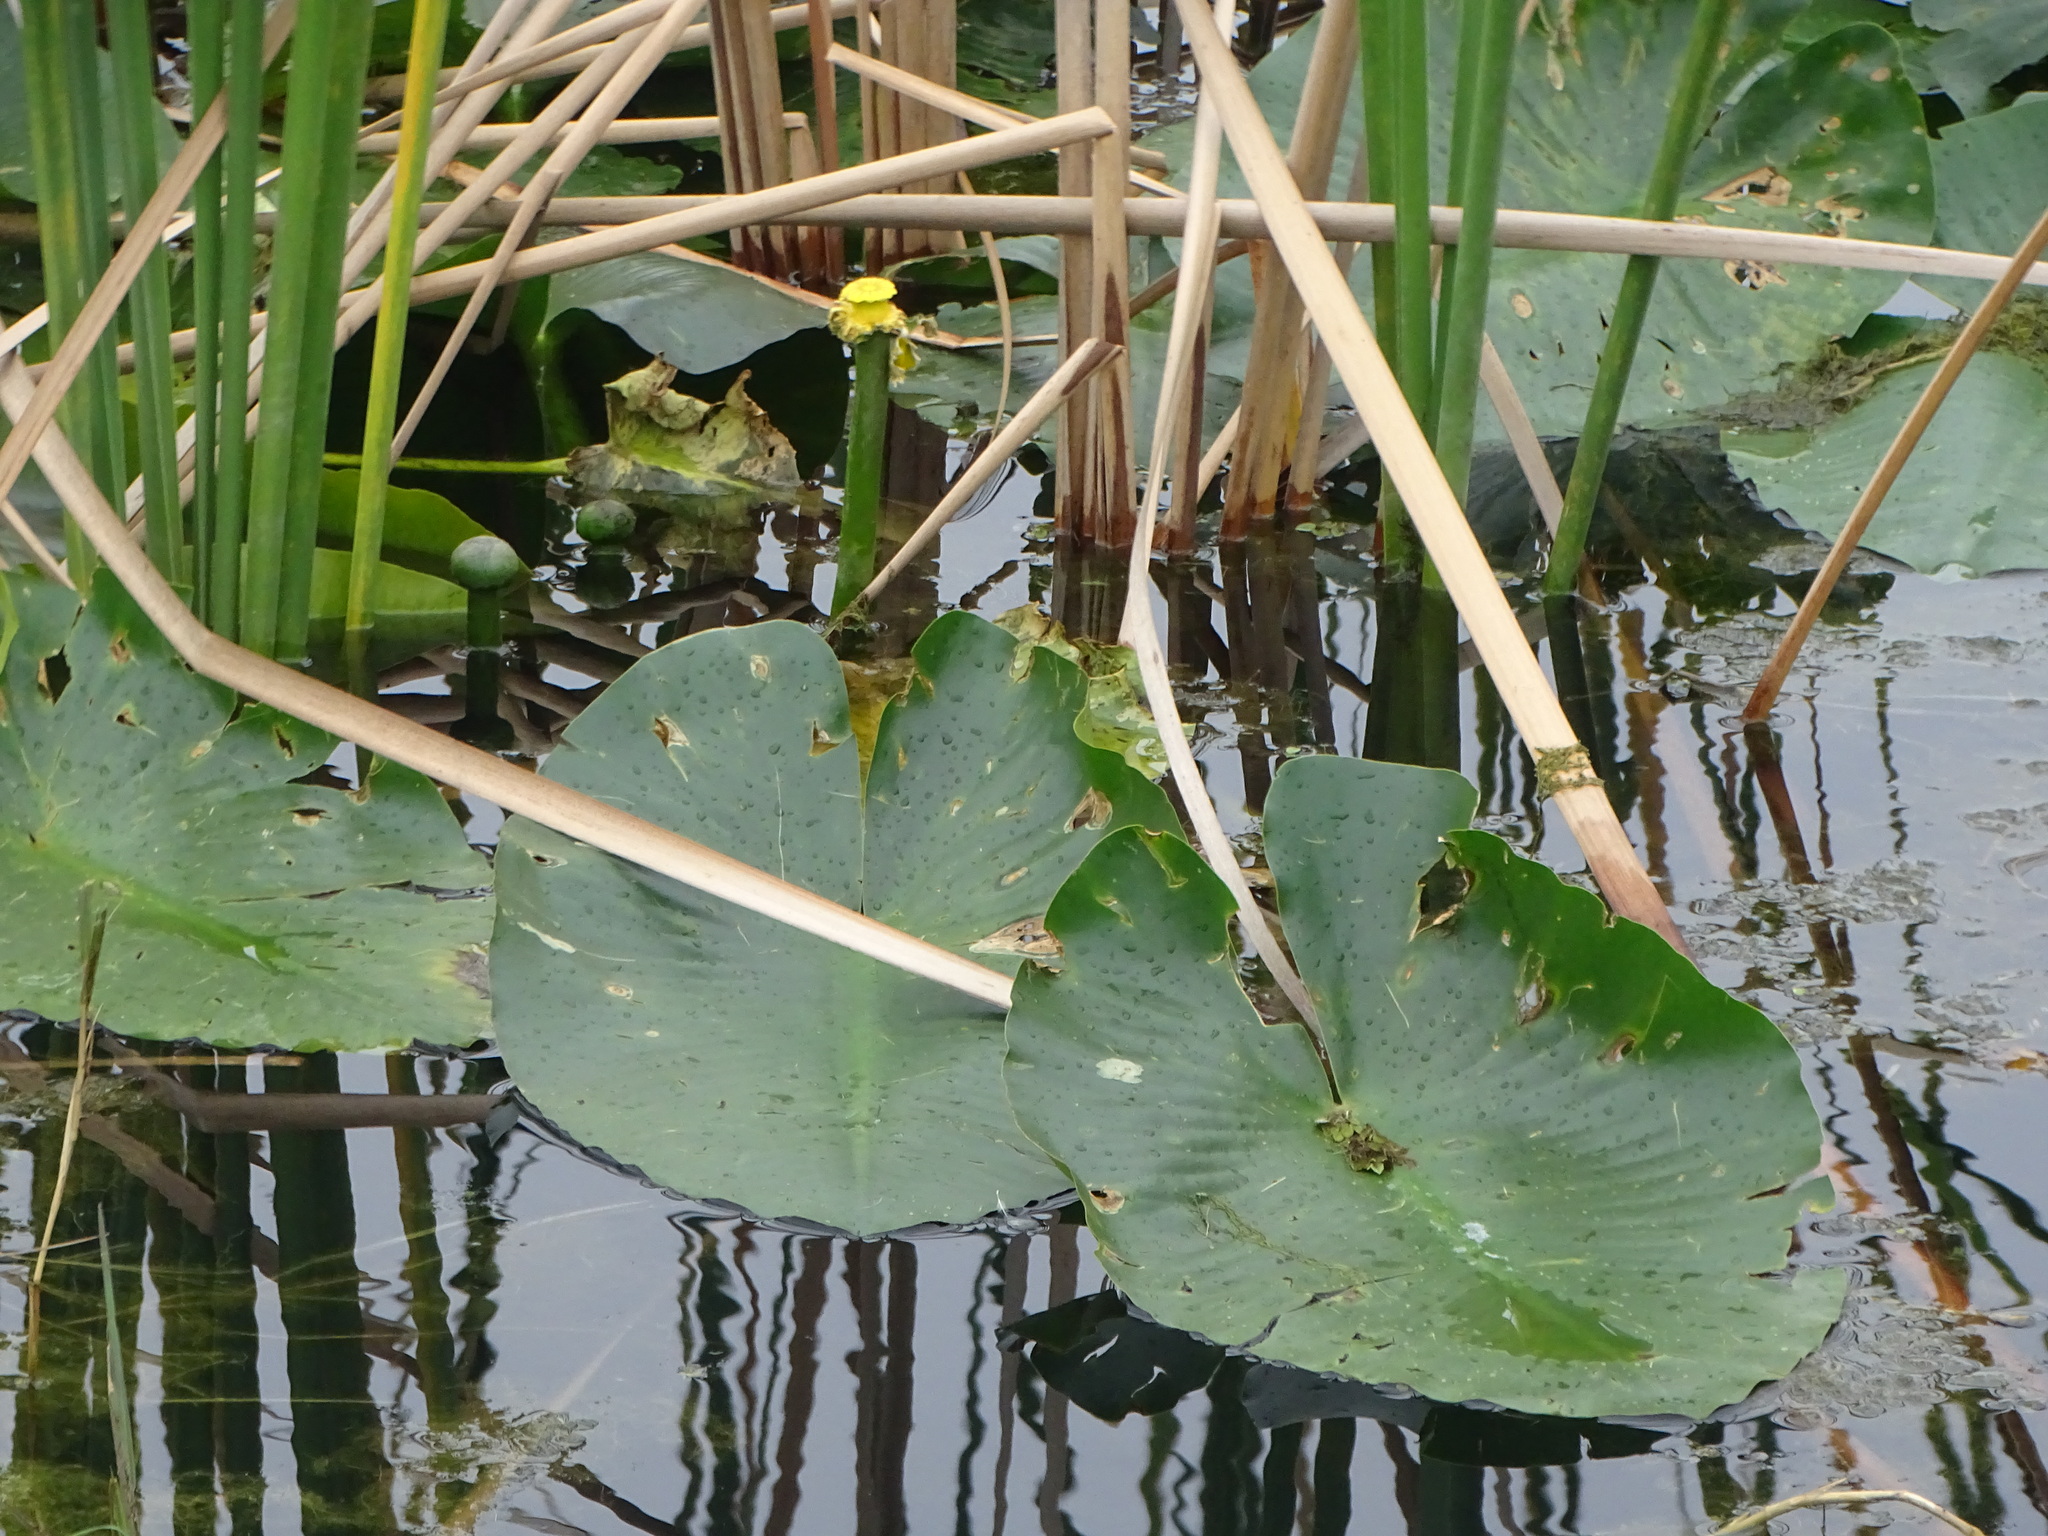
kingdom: Plantae
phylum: Tracheophyta
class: Magnoliopsida
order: Nymphaeales
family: Nymphaeaceae
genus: Nuphar
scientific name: Nuphar advena
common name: Spatter-dock
